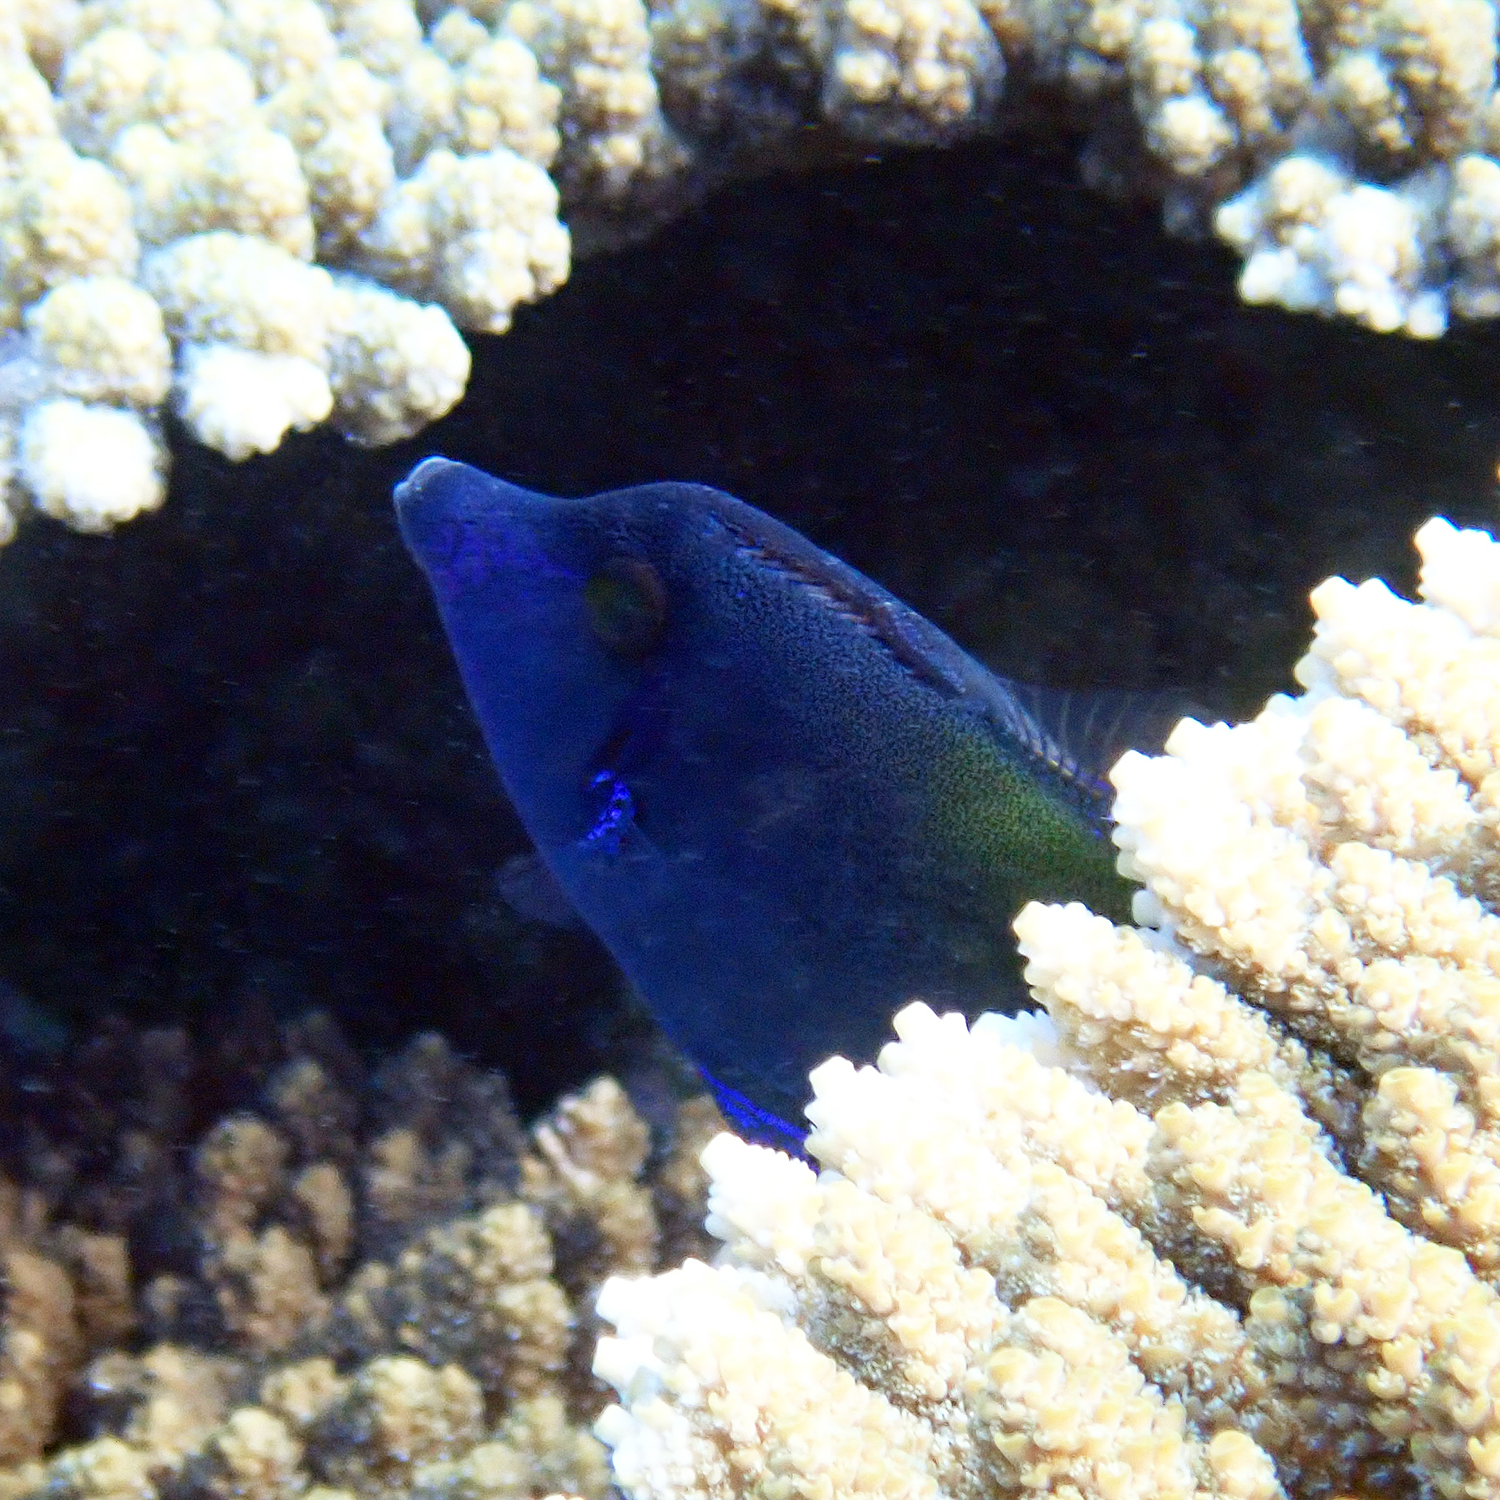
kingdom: Animalia
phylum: Chordata
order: Tetraodontiformes
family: Monacanthidae
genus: Pervagor
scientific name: Pervagor janthinosoma
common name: Blackbar filefish
